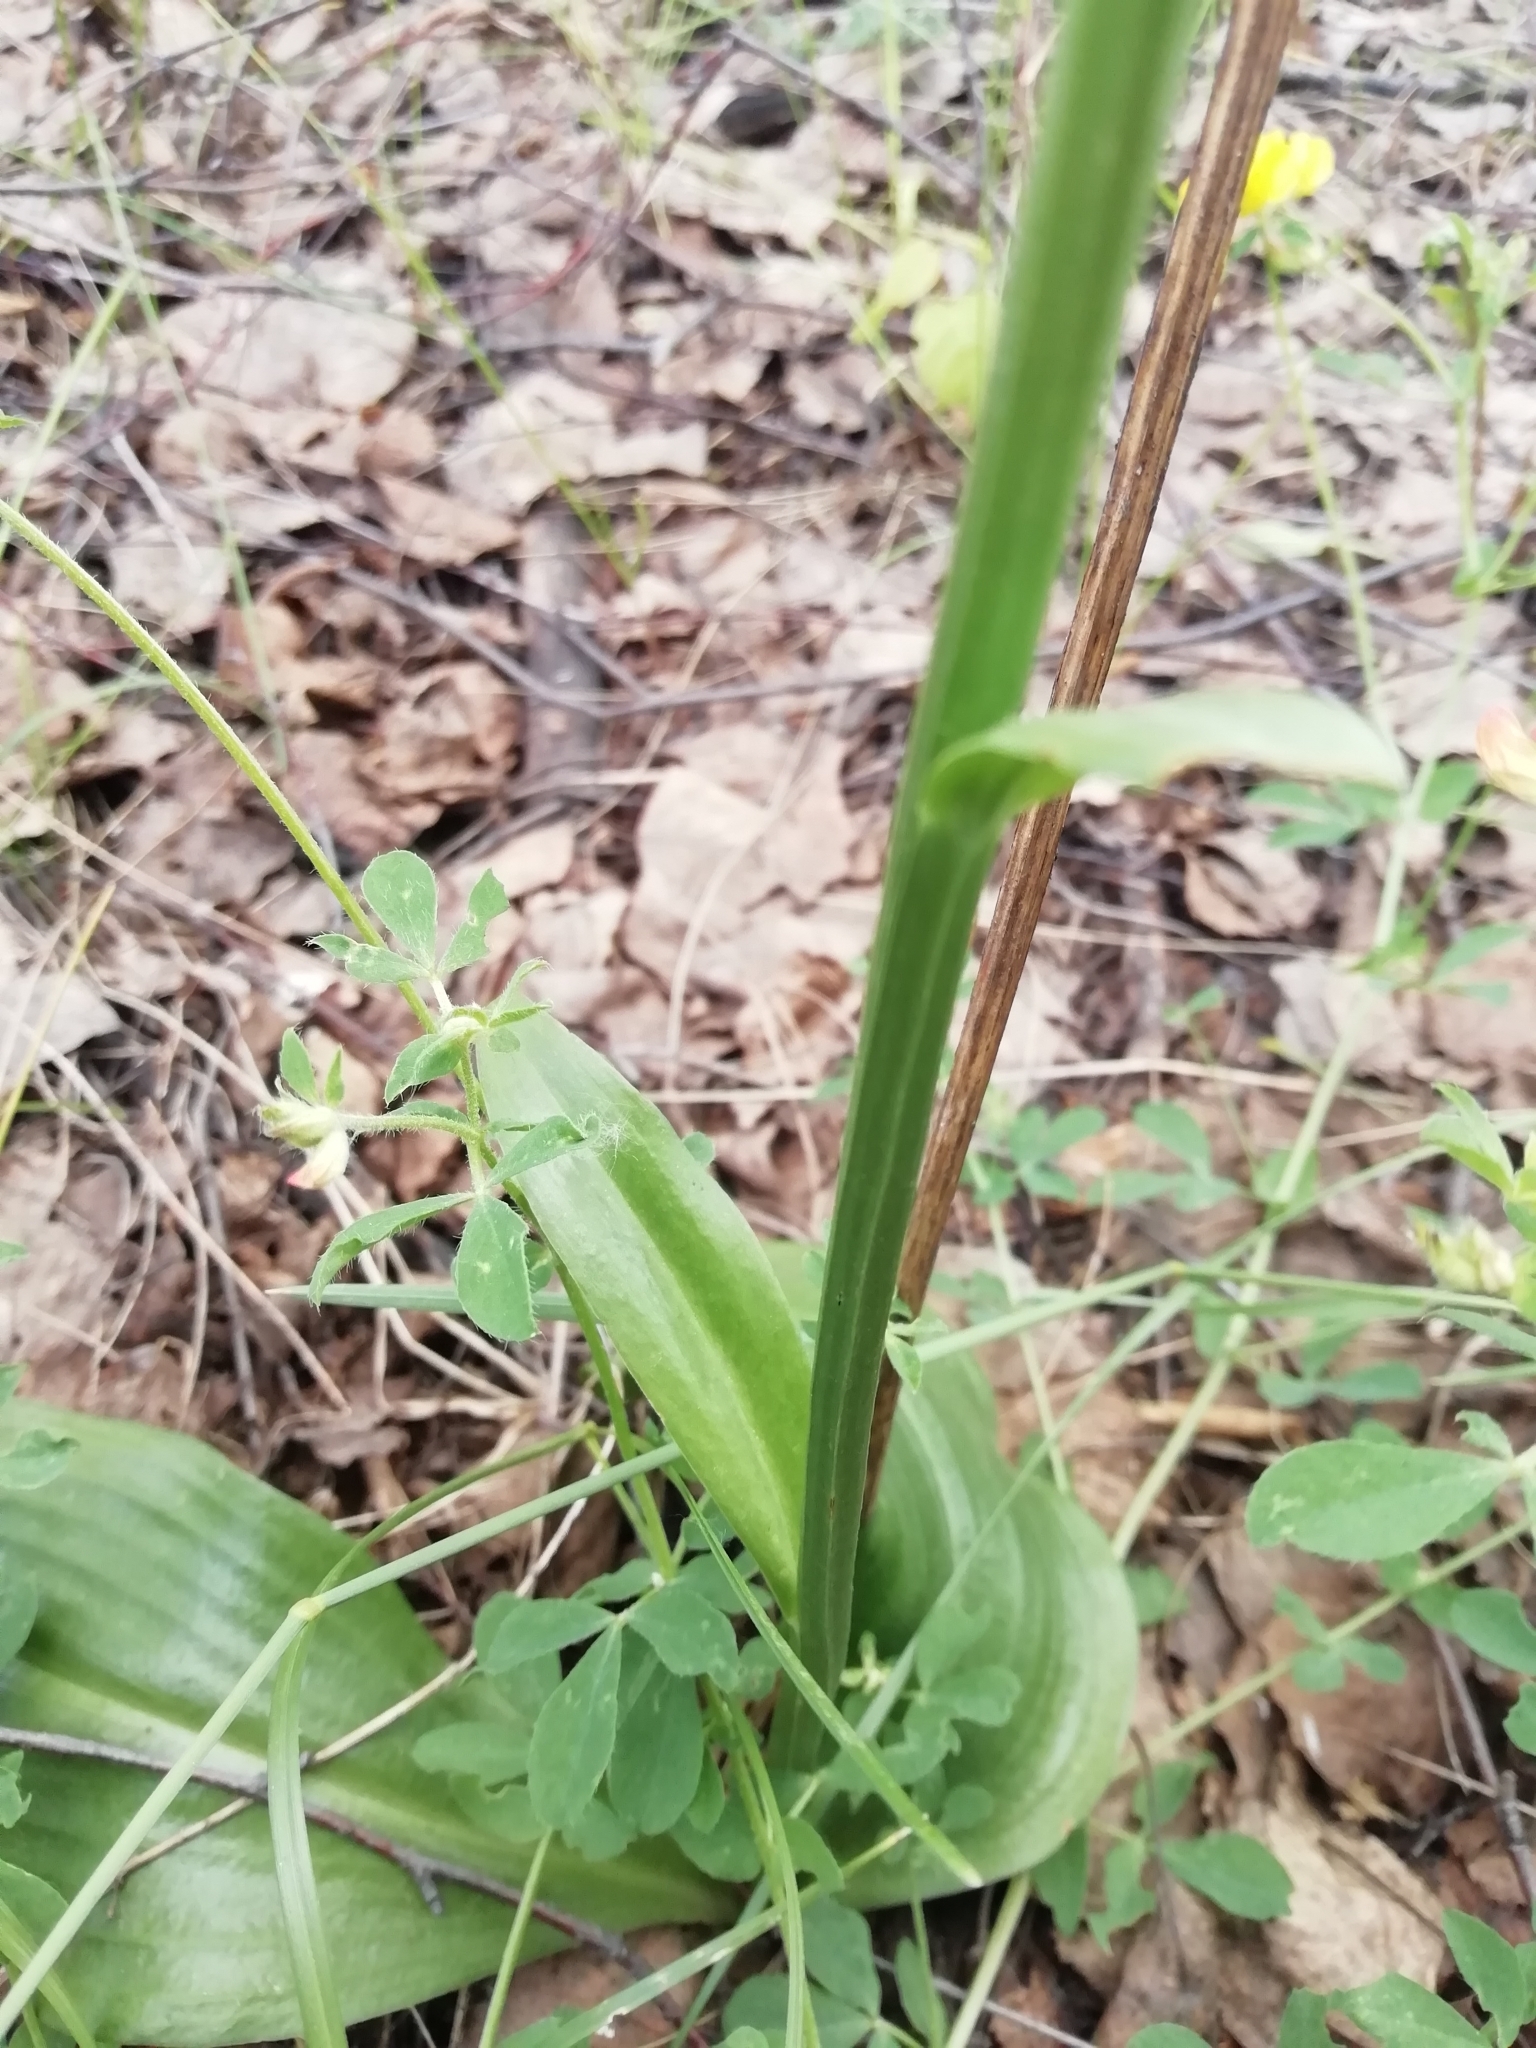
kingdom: Plantae
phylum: Tracheophyta
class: Liliopsida
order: Asparagales
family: Orchidaceae
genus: Platanthera
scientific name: Platanthera bifolia
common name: Lesser butterfly-orchid
